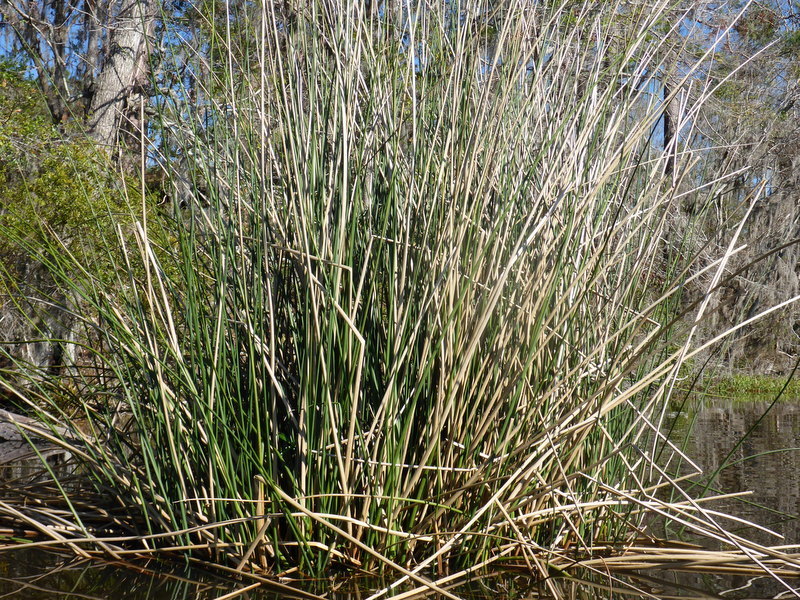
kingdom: Plantae
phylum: Tracheophyta
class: Liliopsida
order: Poales
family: Cyperaceae
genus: Schoenoplectus
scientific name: Schoenoplectus californicus
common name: California bulrush
